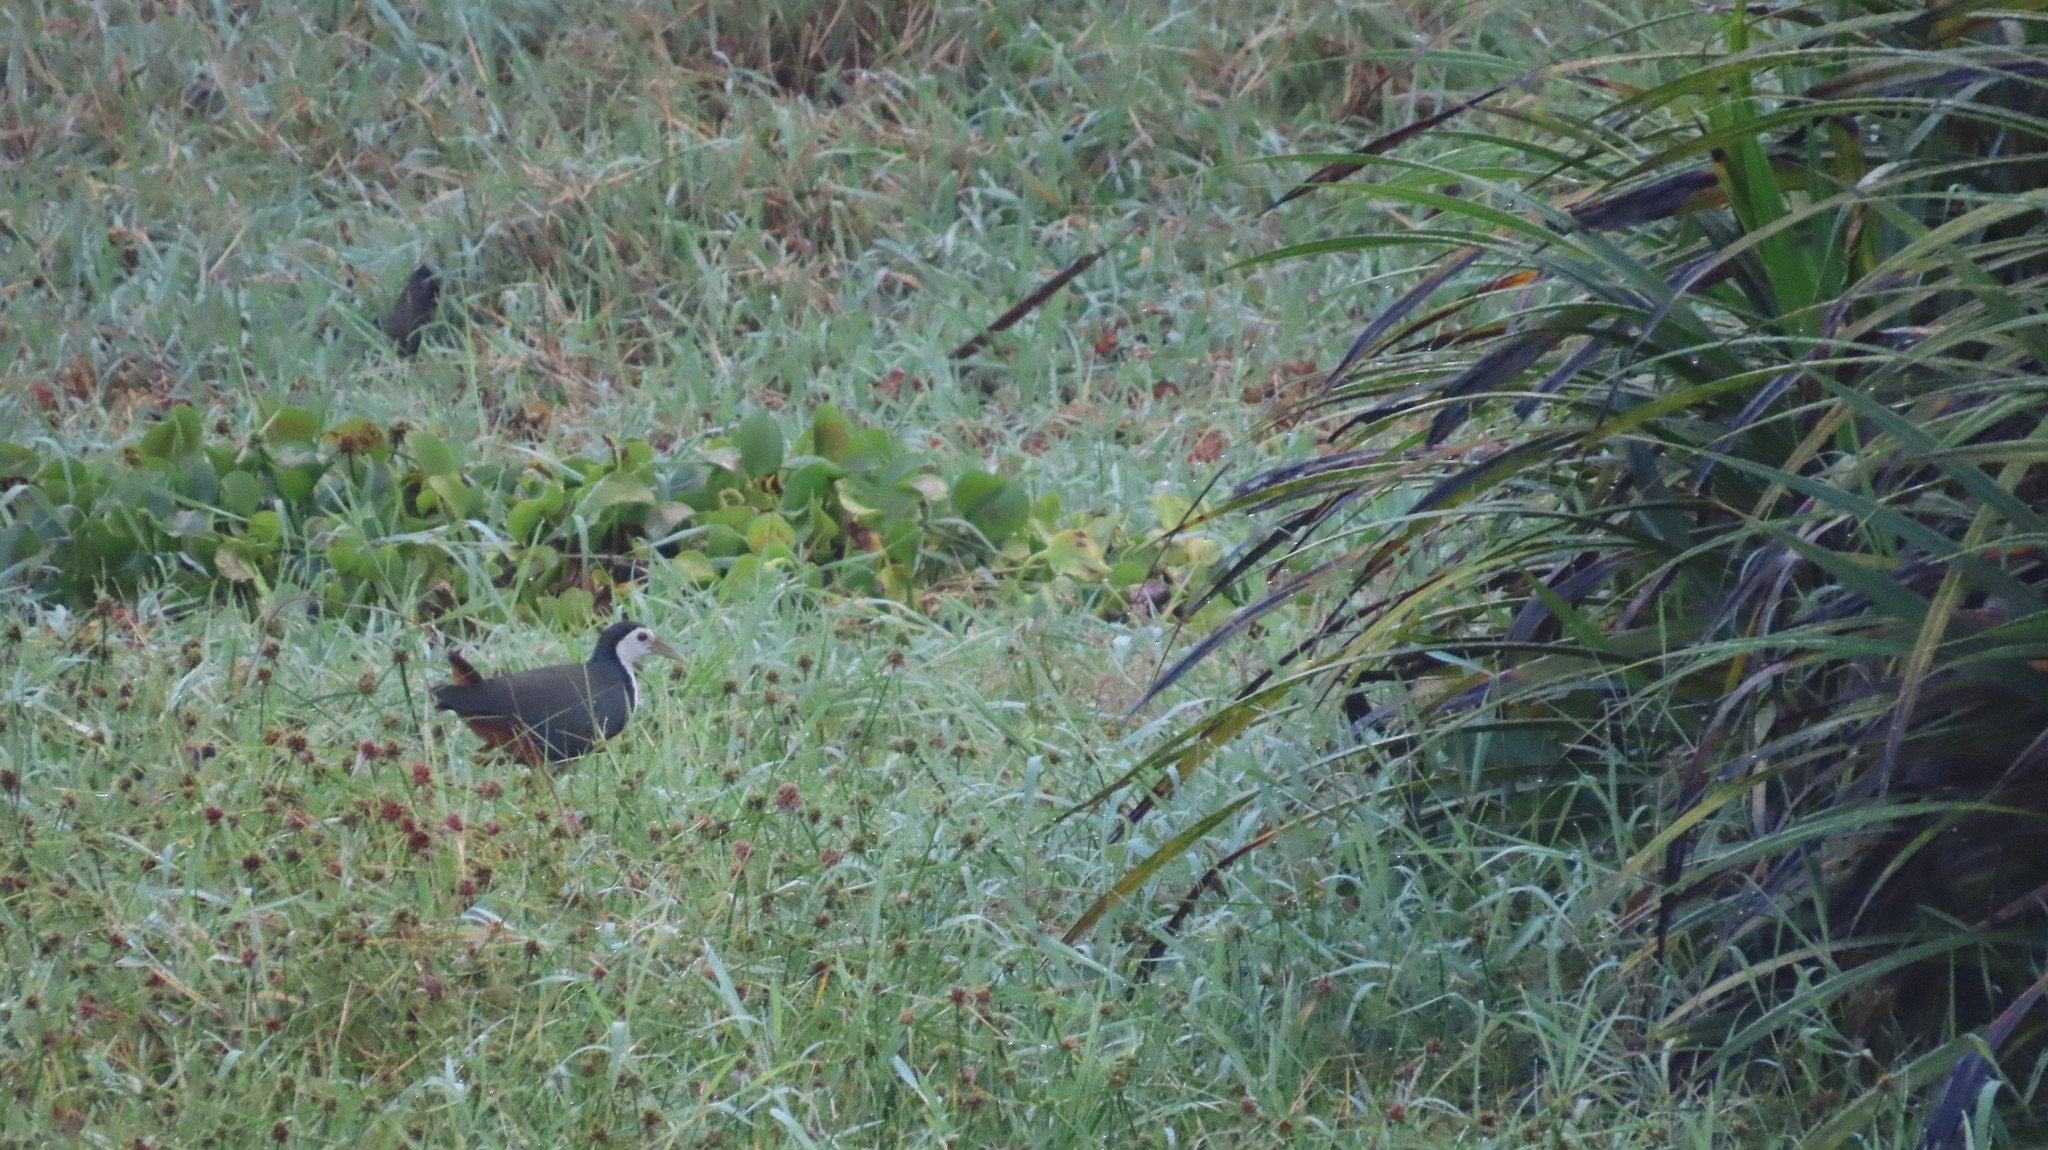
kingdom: Animalia
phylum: Chordata
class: Aves
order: Gruiformes
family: Rallidae
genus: Amaurornis
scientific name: Amaurornis phoenicurus
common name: White-breasted waterhen
